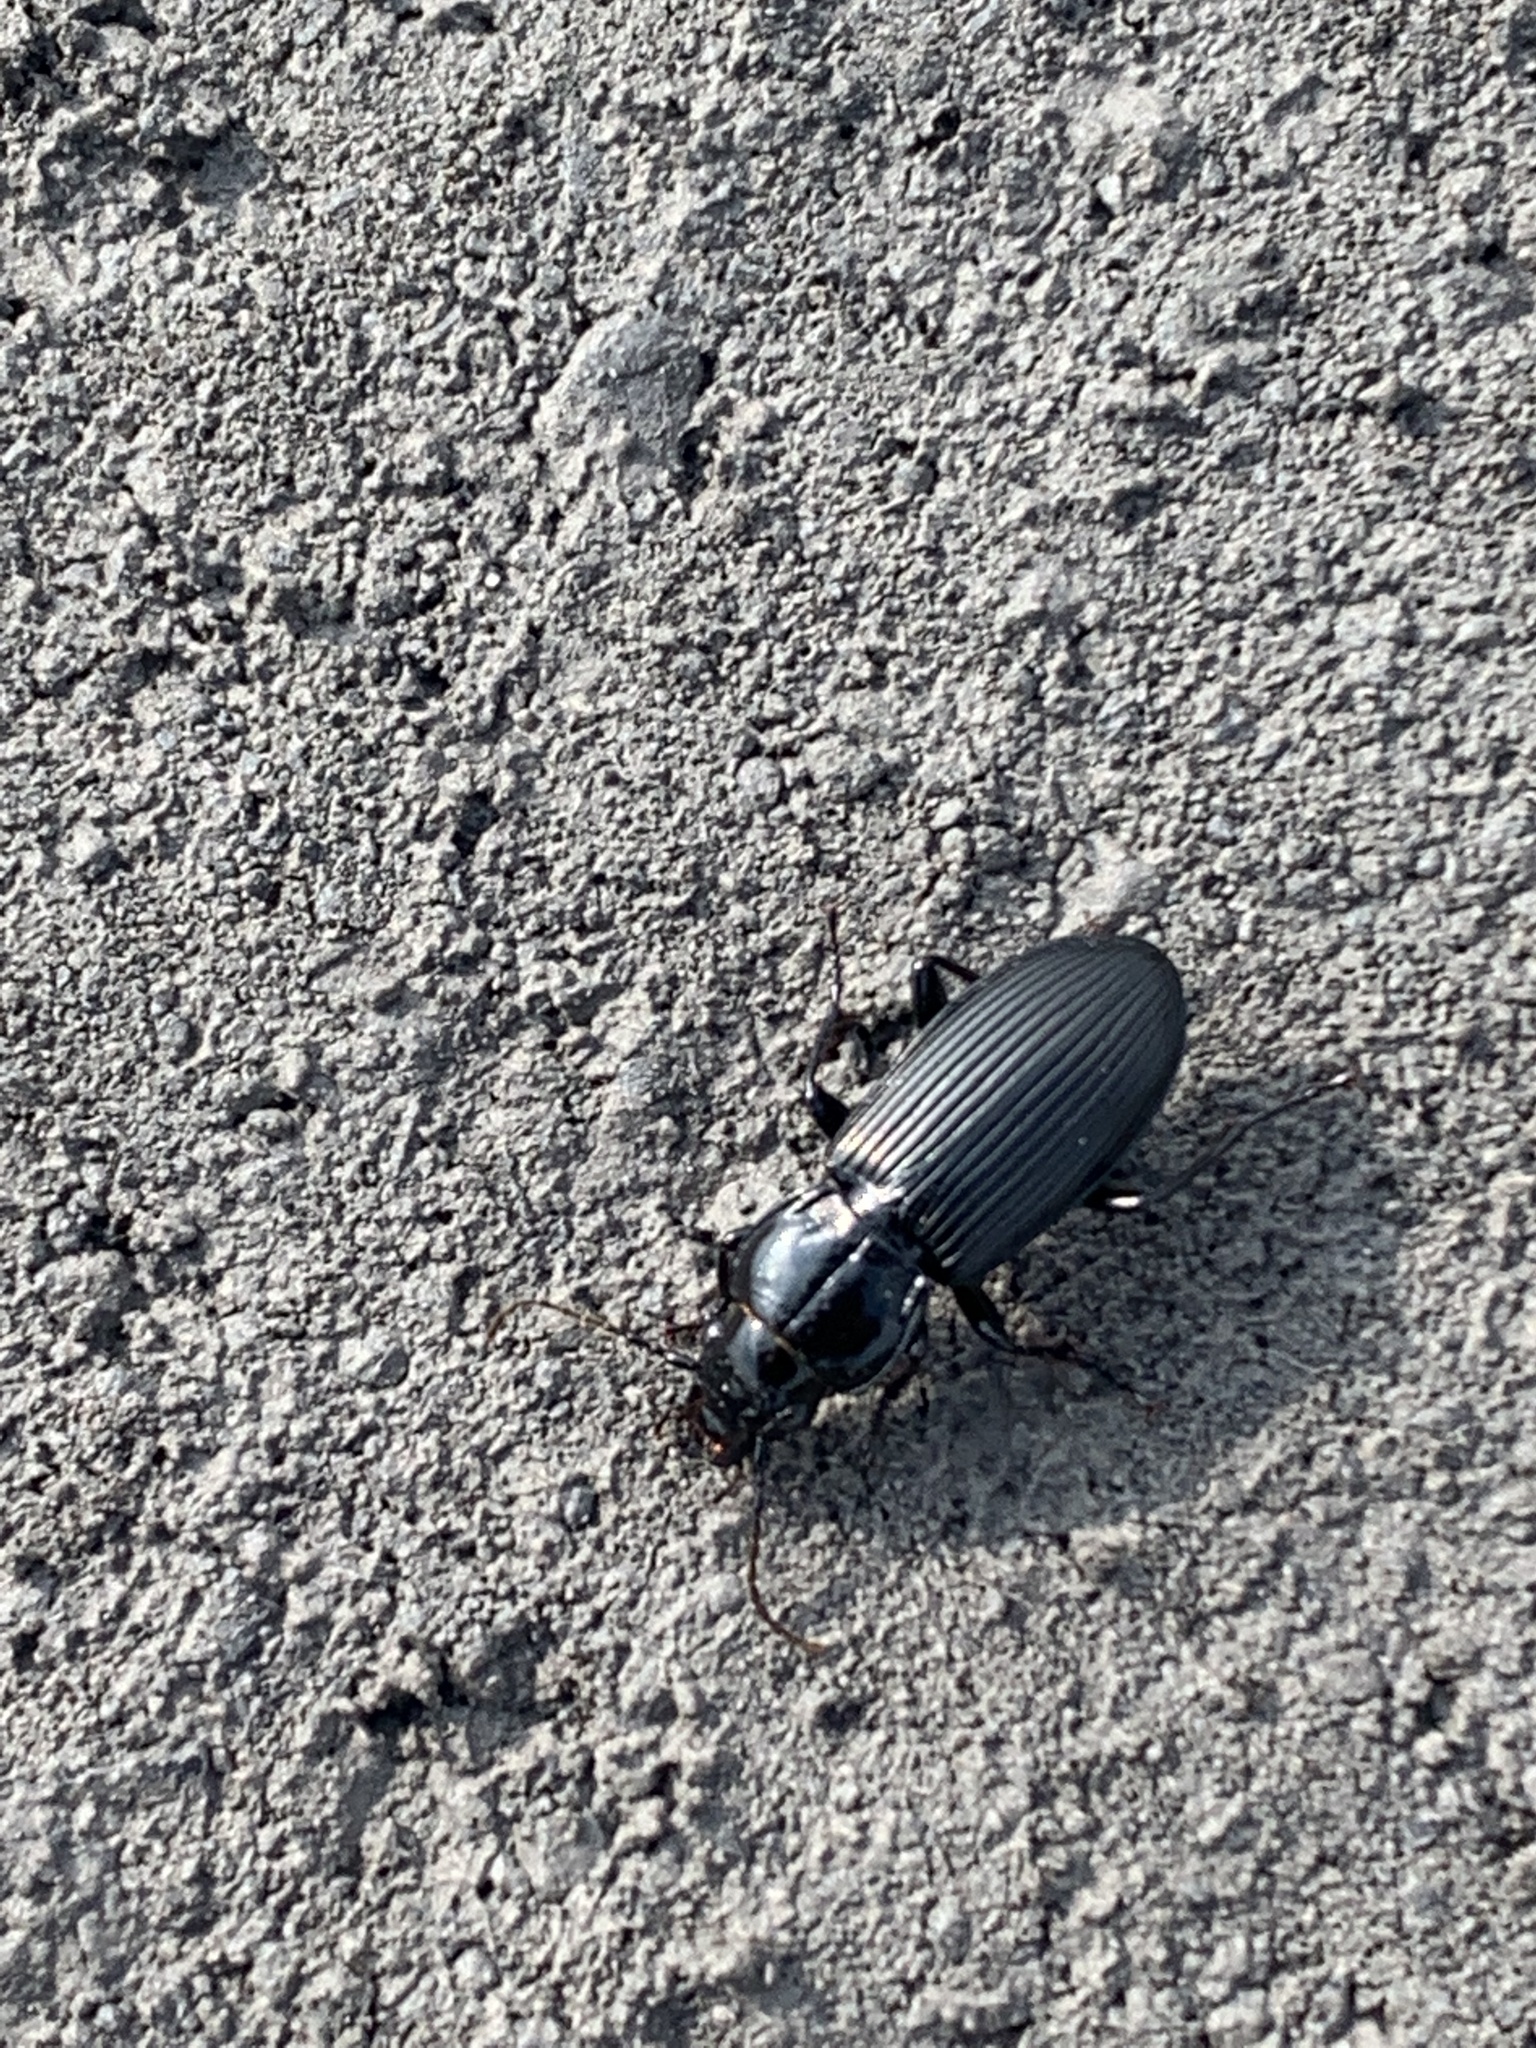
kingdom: Animalia
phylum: Arthropoda
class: Insecta
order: Coleoptera
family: Carabidae
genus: Pterostichus
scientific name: Pterostichus melanarius
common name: European dark harp ground beetle
